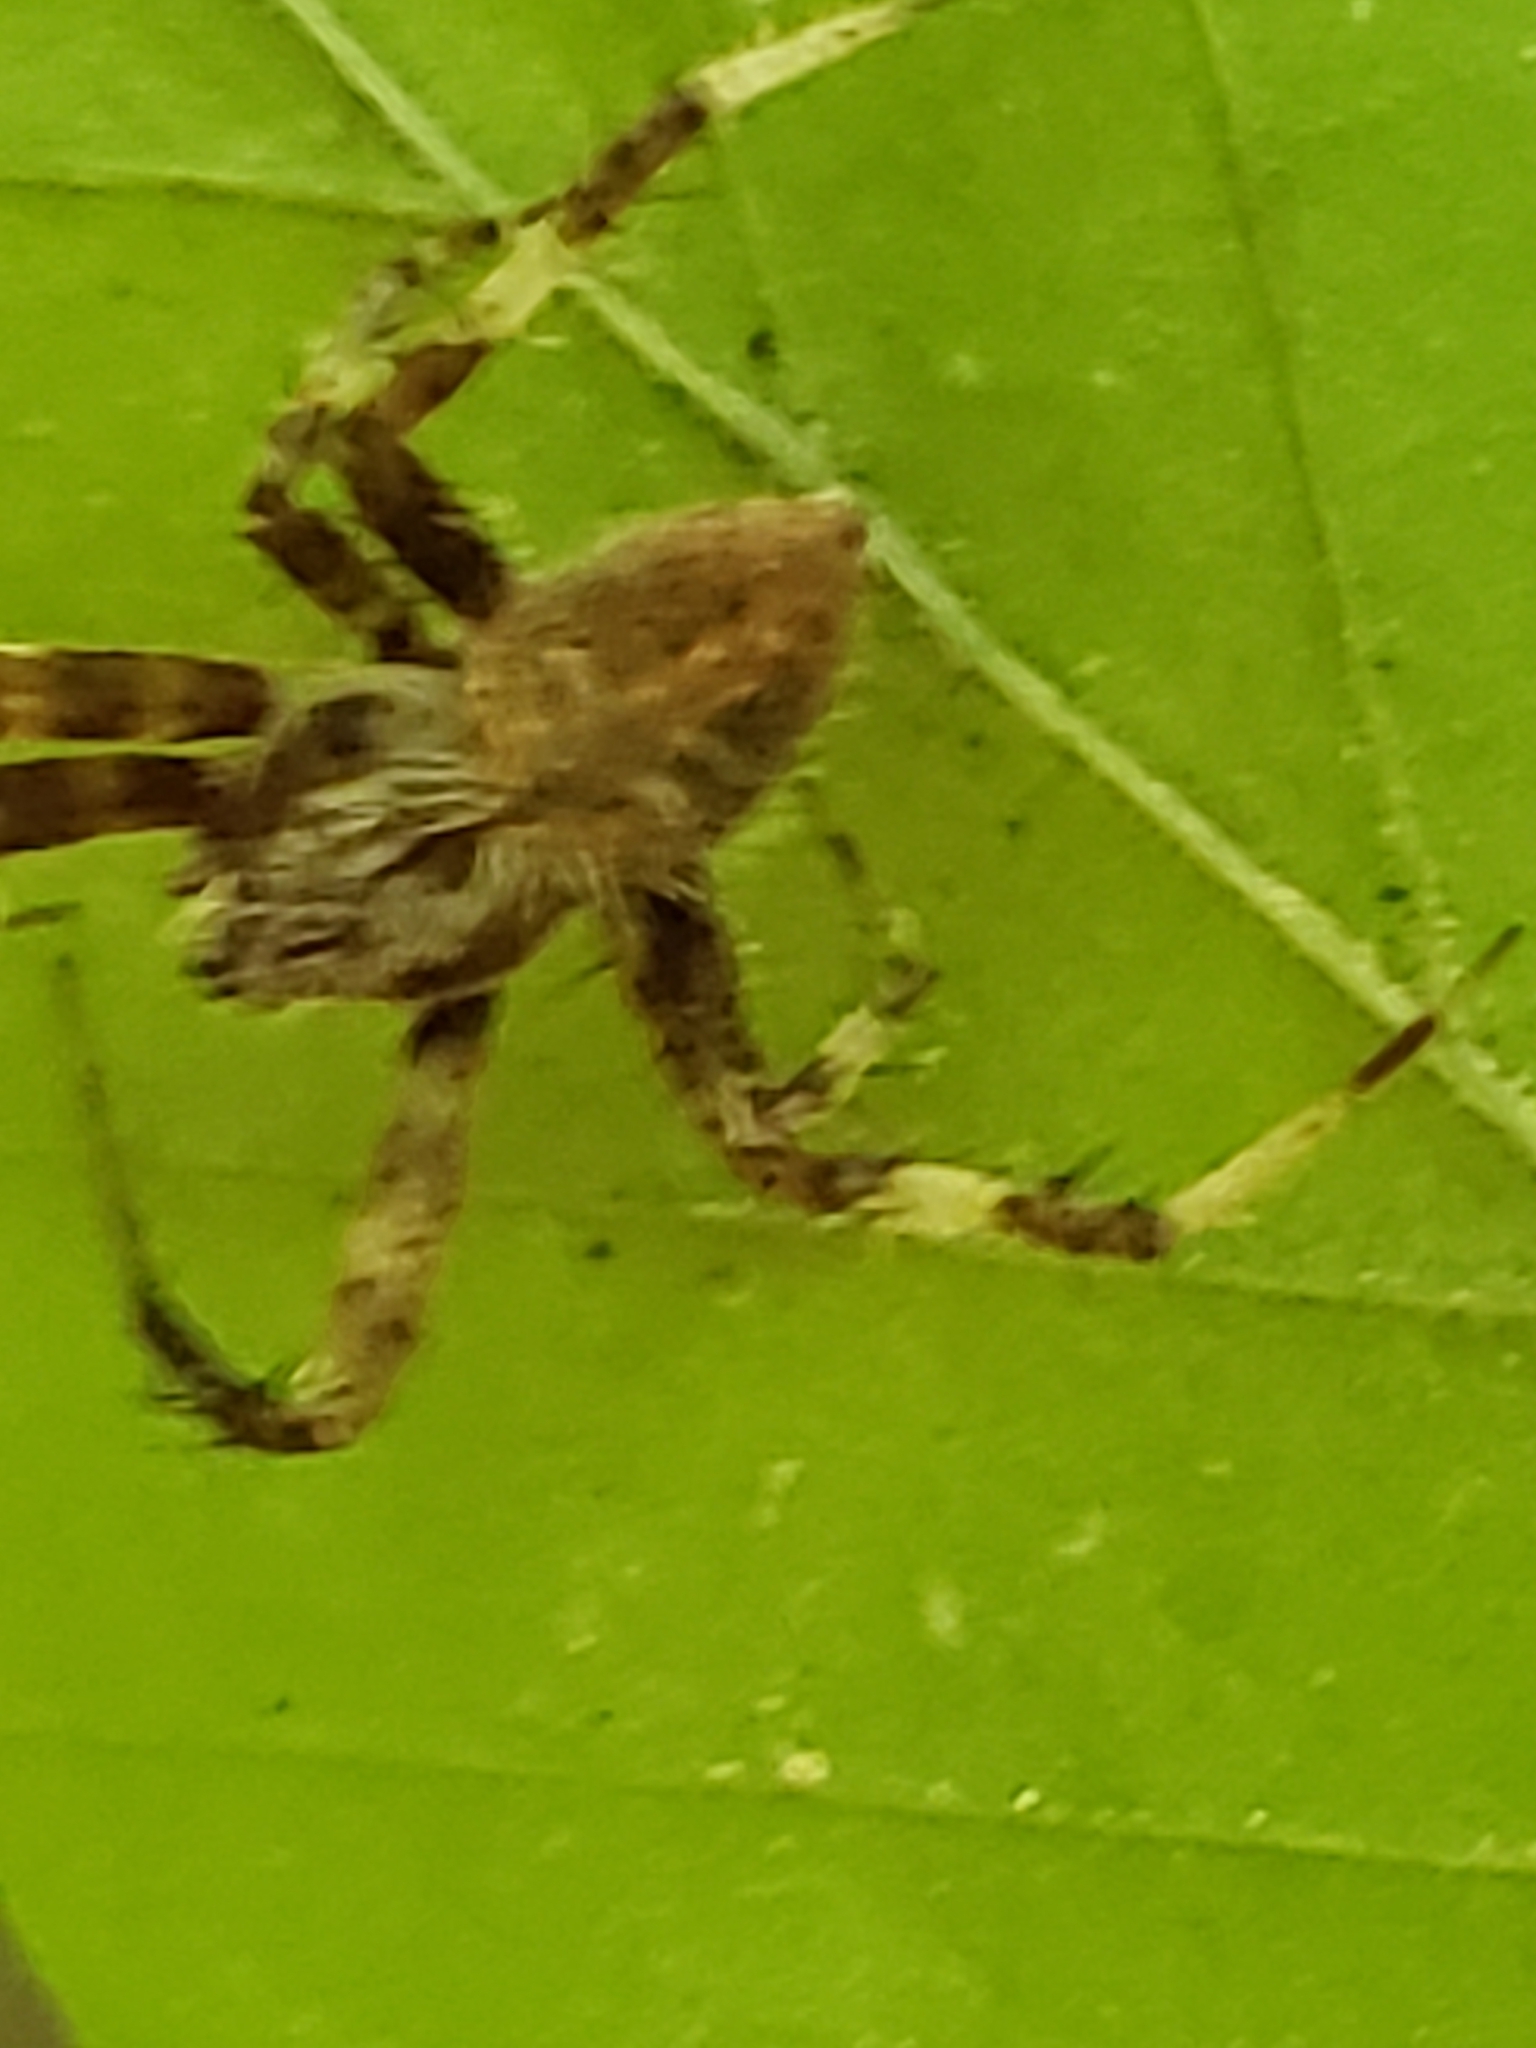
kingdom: Animalia
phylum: Arthropoda
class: Arachnida
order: Araneae
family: Araneidae
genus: Neoscona
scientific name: Neoscona crucifera
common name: Spotted orbweaver
